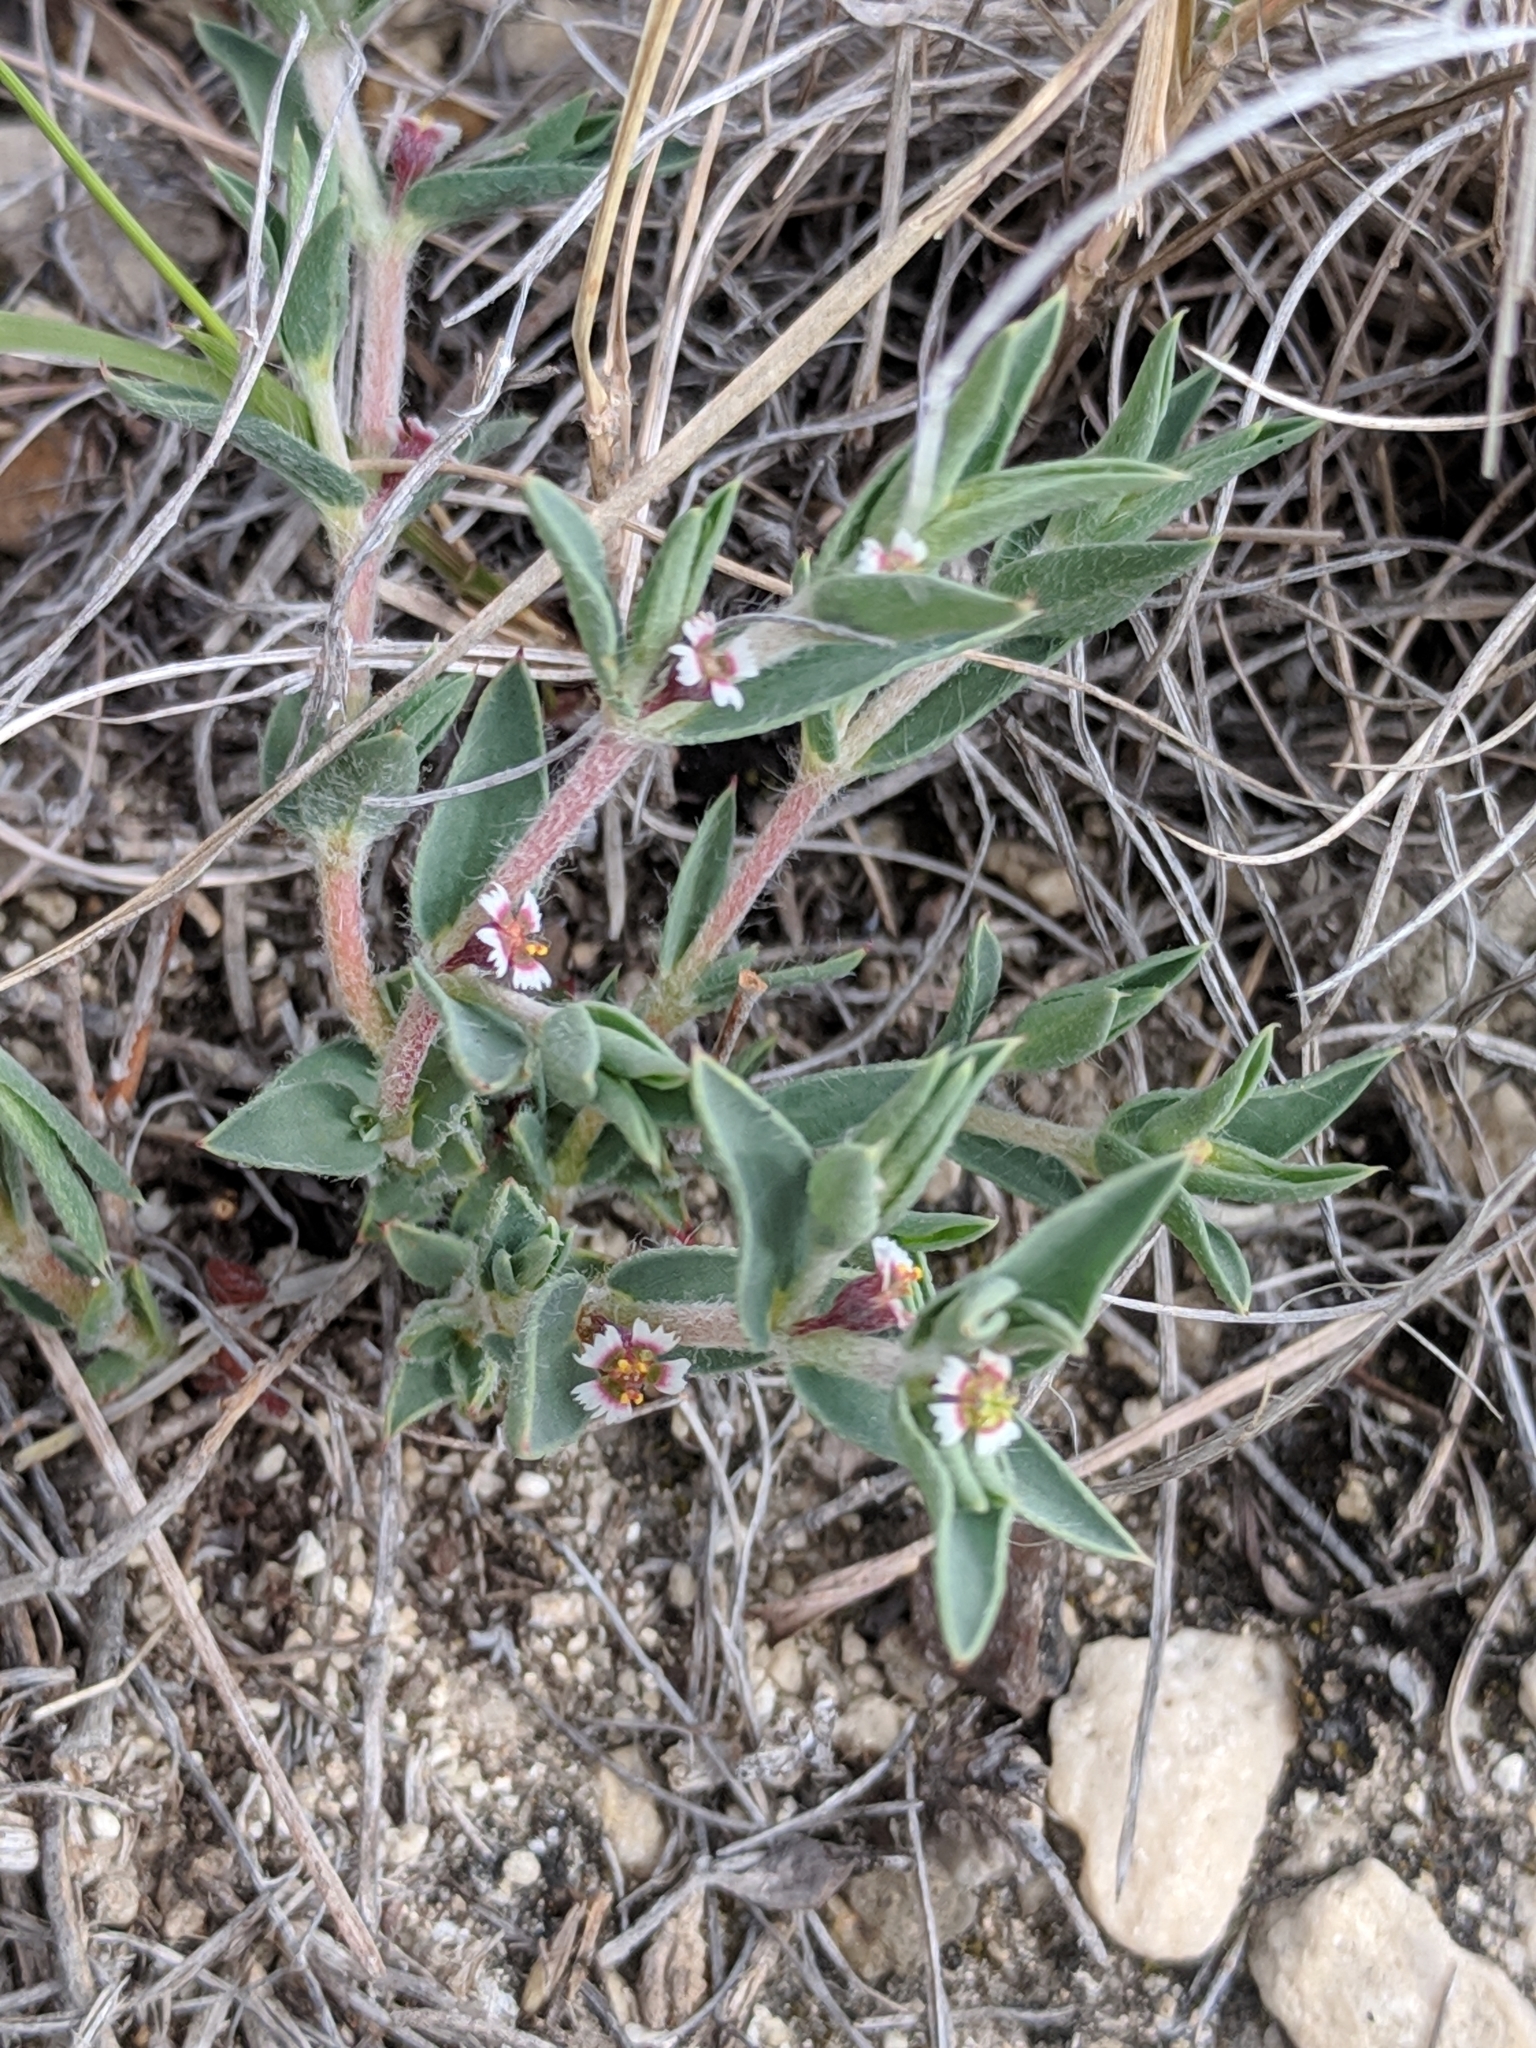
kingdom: Plantae
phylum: Tracheophyta
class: Magnoliopsida
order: Malpighiales
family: Euphorbiaceae
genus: Euphorbia
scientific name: Euphorbia acuta
